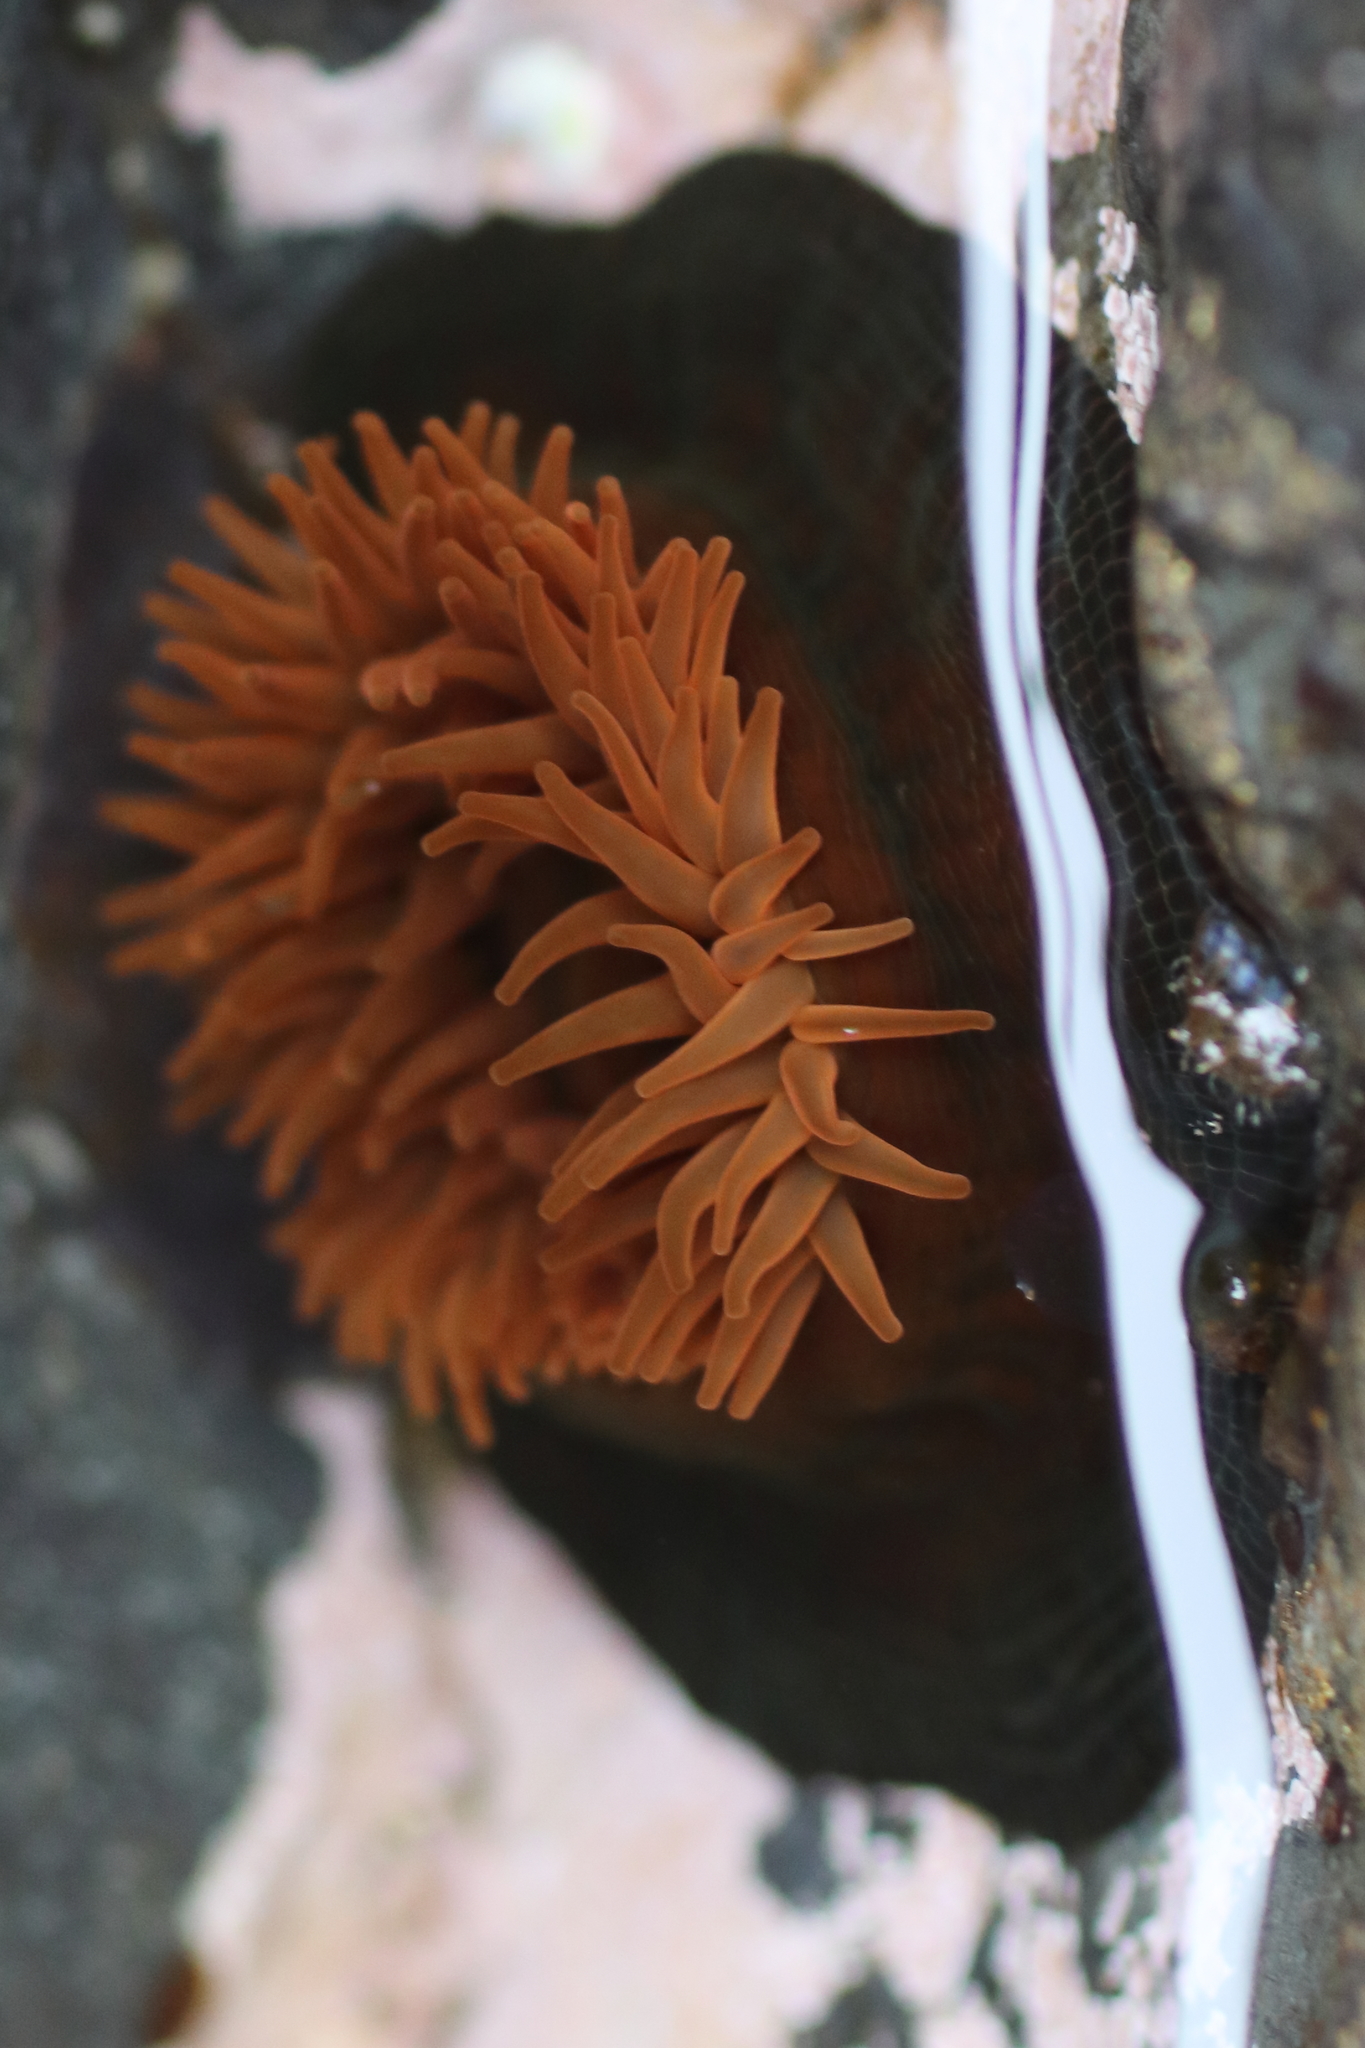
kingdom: Animalia
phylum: Cnidaria
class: Anthozoa
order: Actiniaria
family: Actiniidae
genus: Epiactis
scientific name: Epiactis prolifera
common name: Brooding anemone
